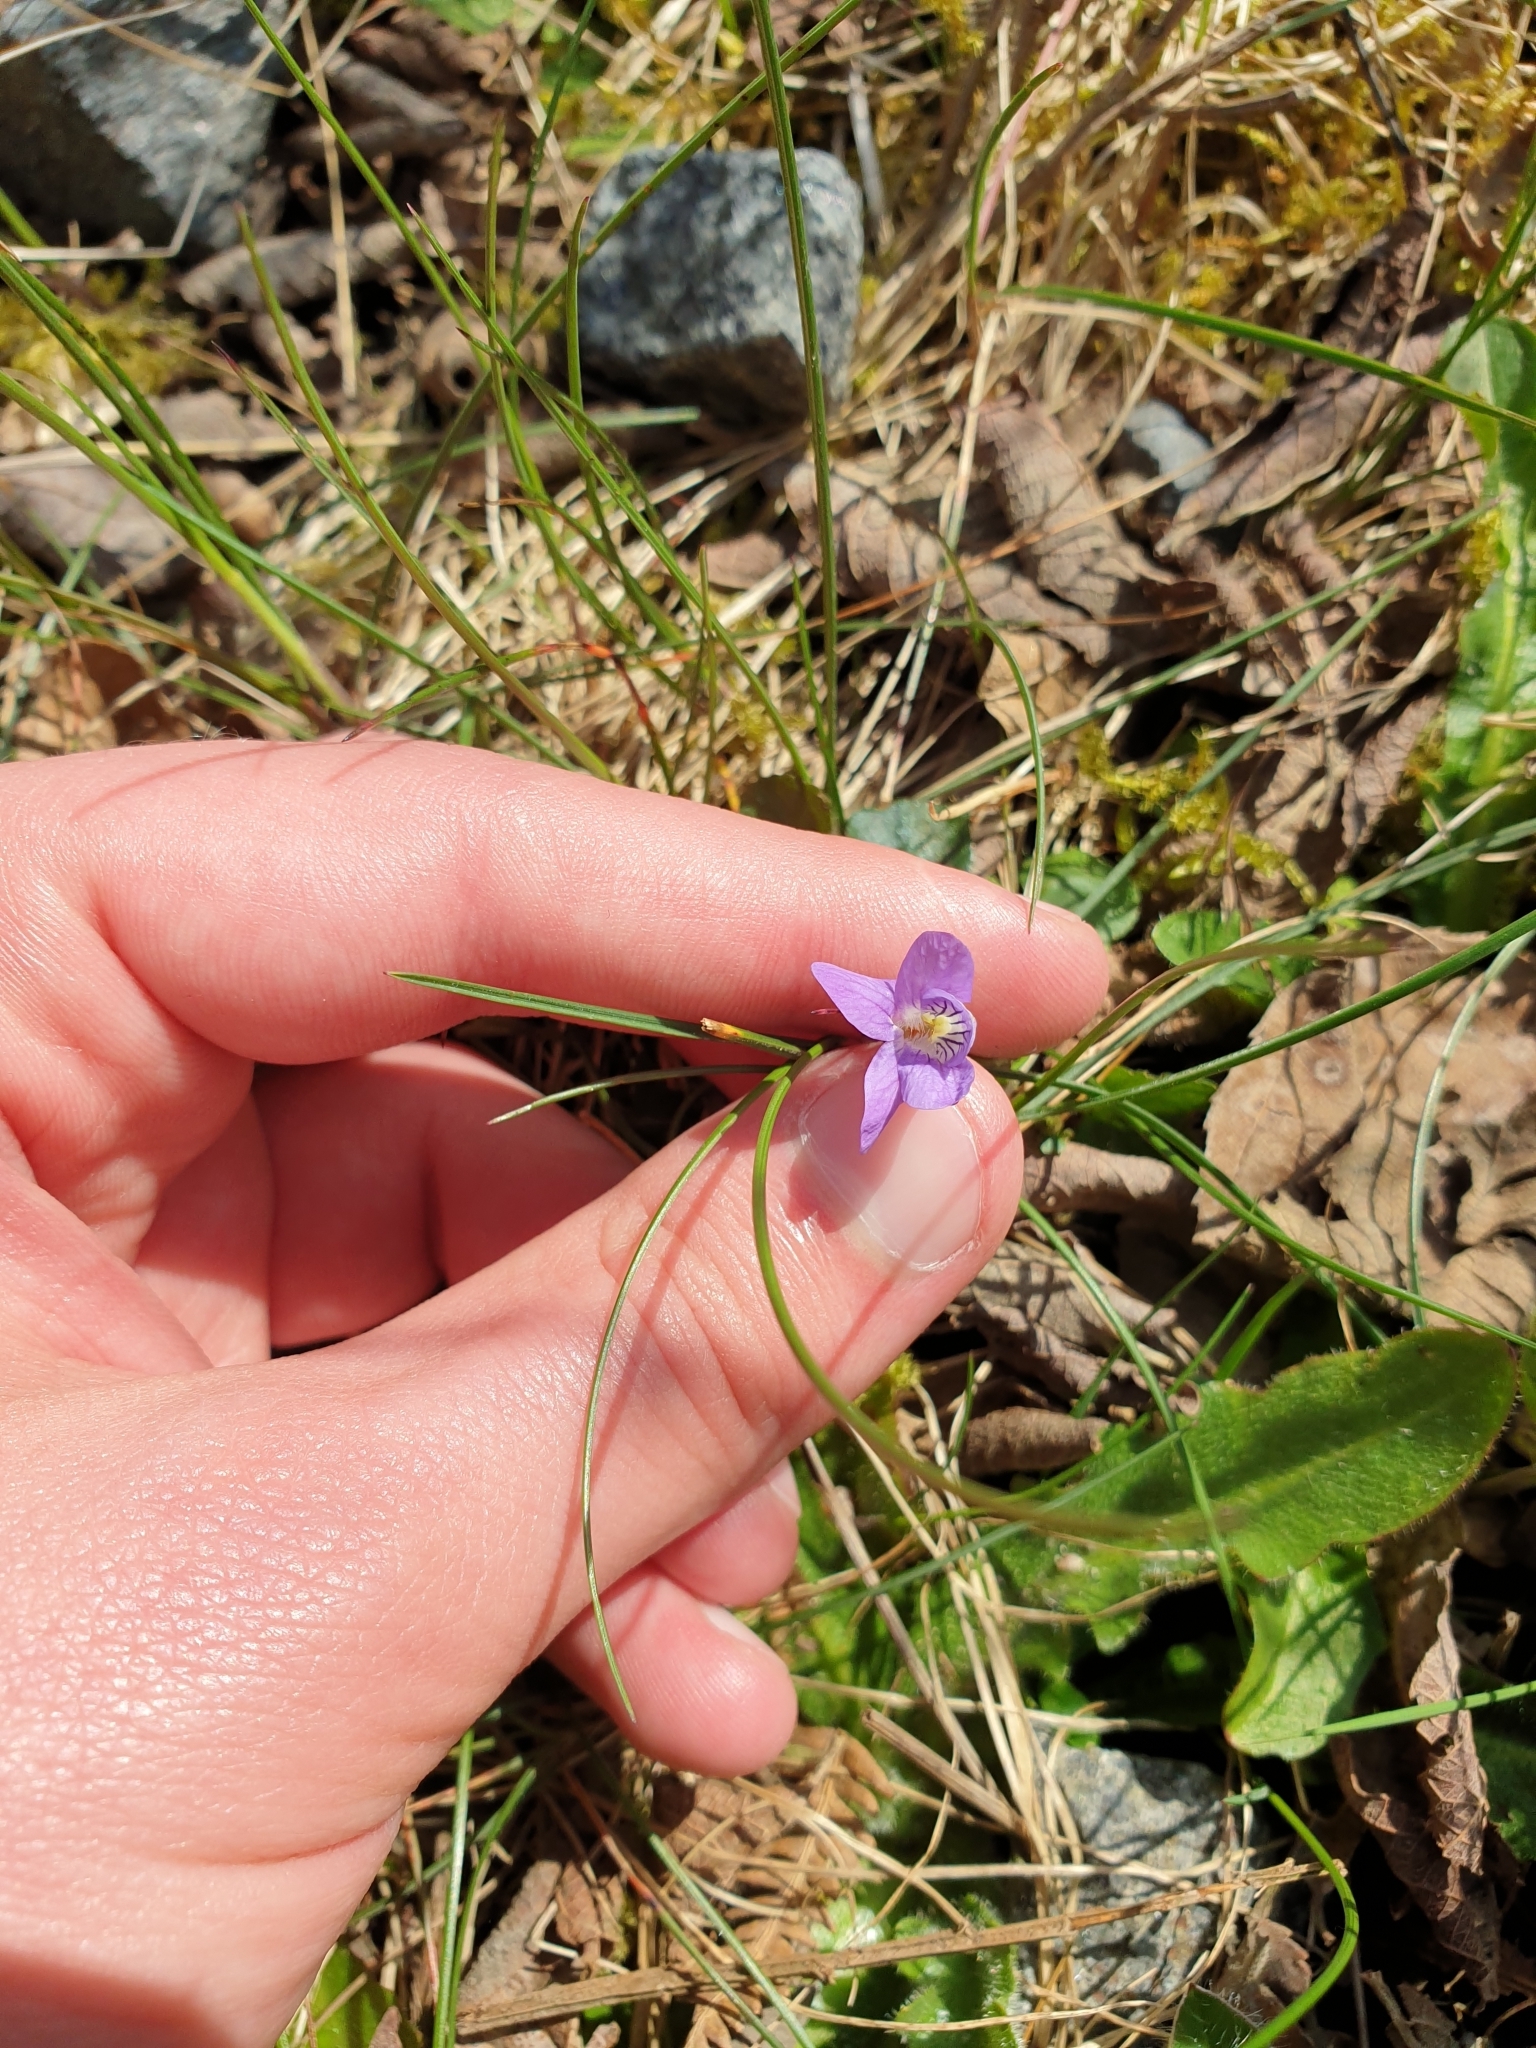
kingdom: Plantae
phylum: Tracheophyta
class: Magnoliopsida
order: Malpighiales
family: Violaceae
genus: Viola
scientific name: Viola riviniana
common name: Common dog-violet
